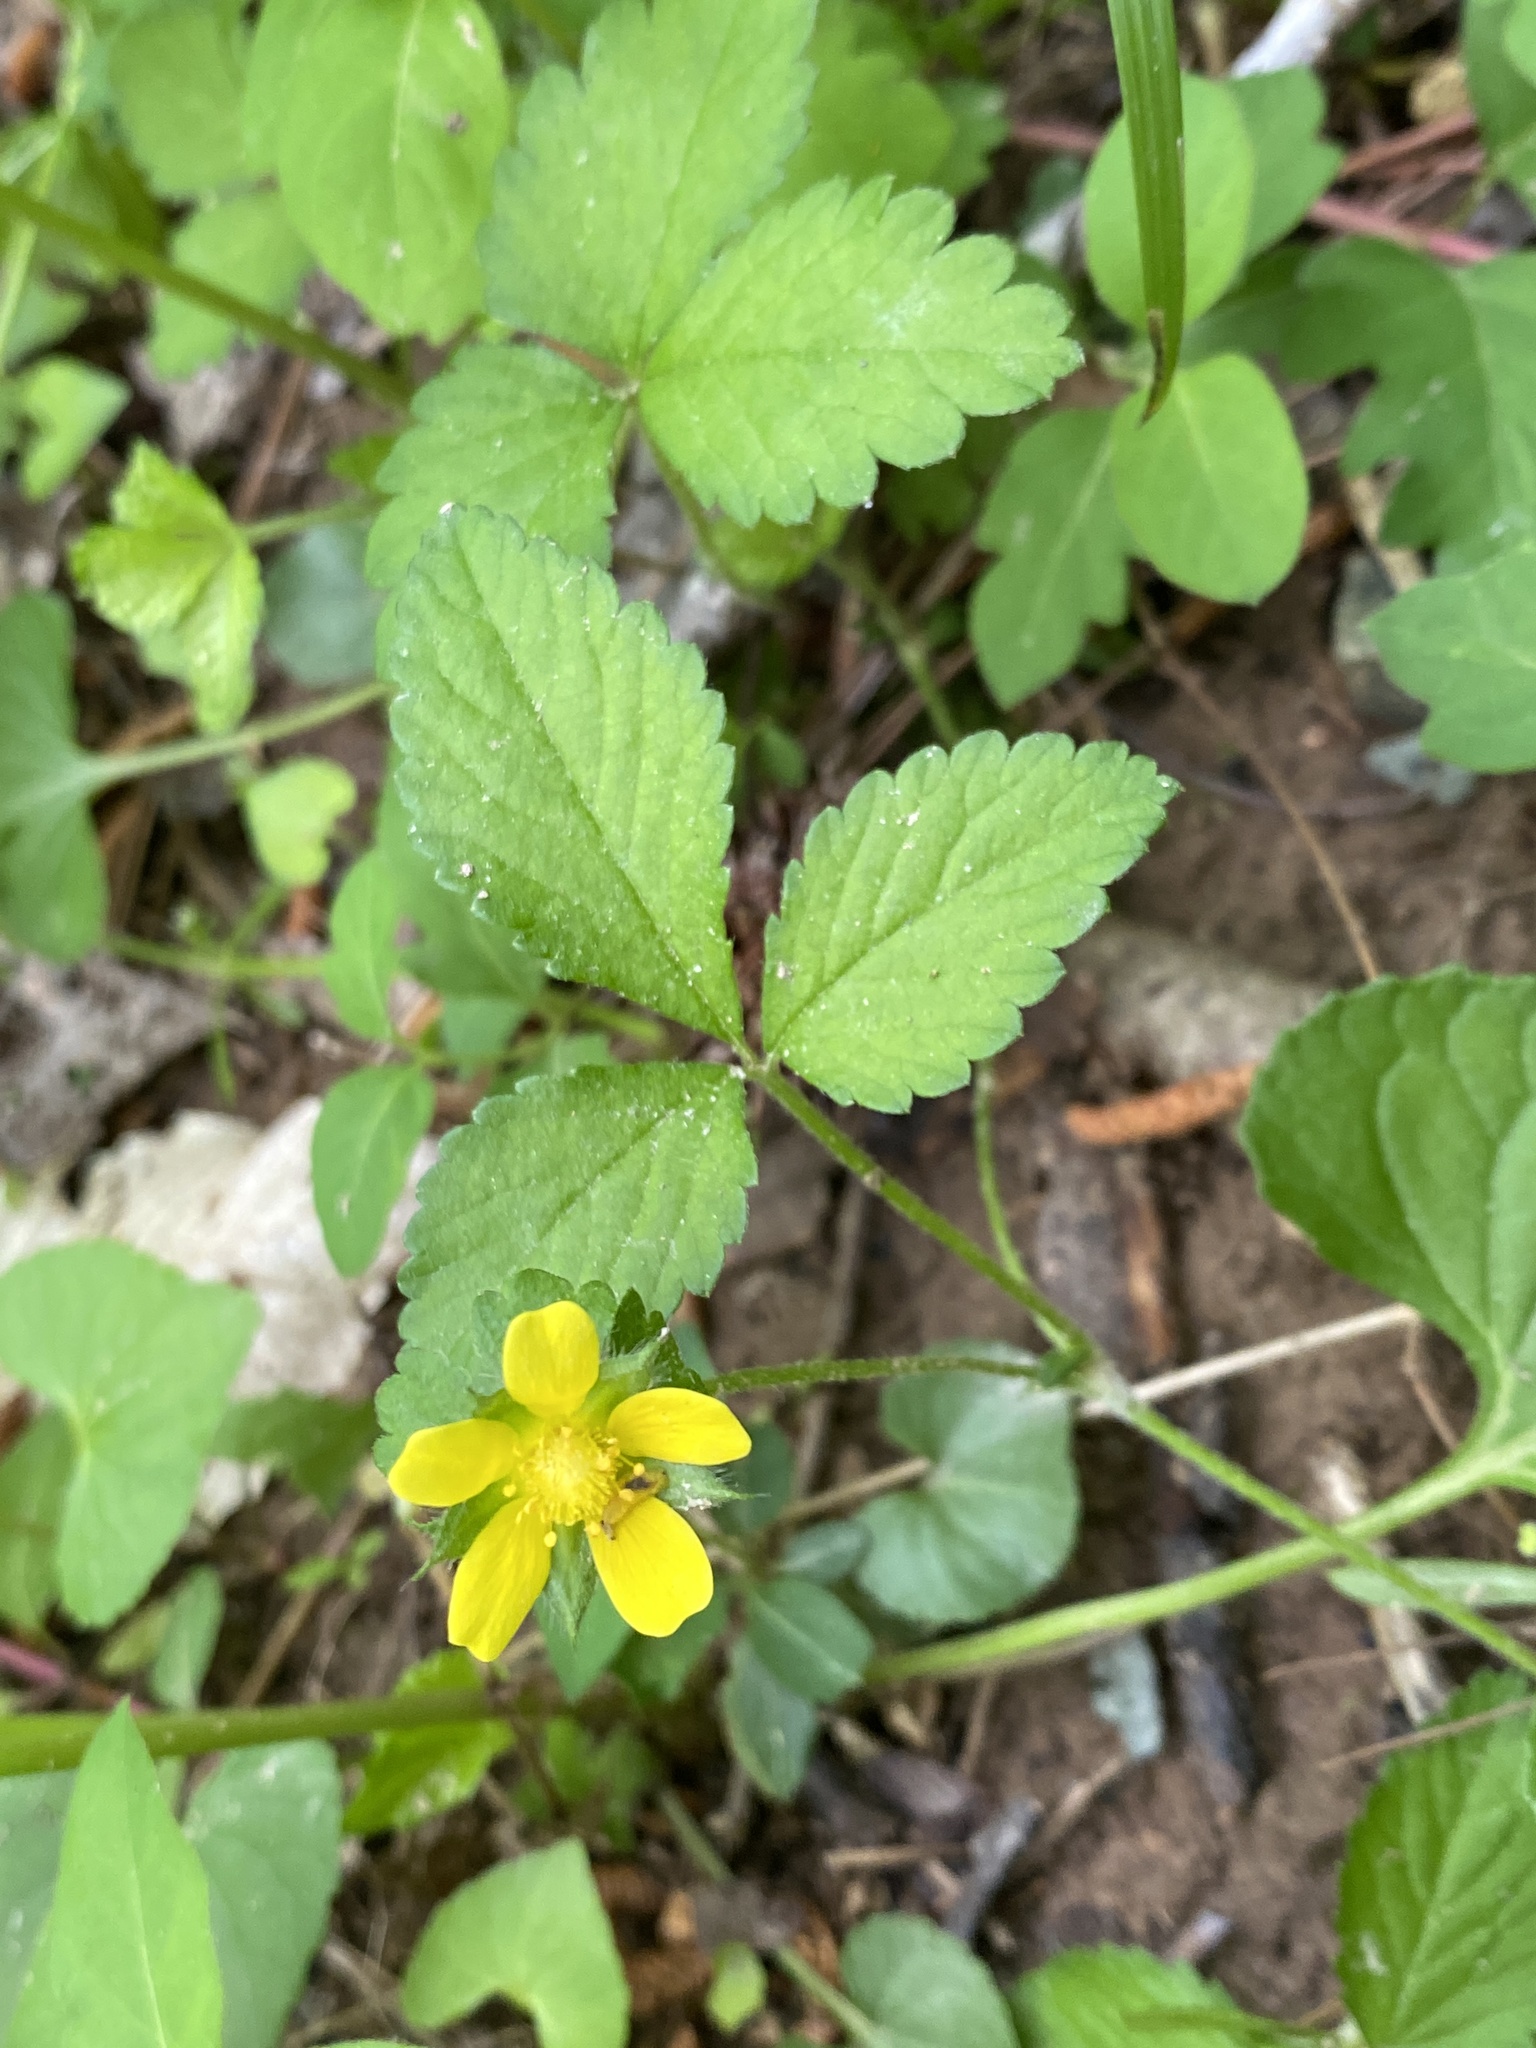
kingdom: Plantae
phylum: Tracheophyta
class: Magnoliopsida
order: Rosales
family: Rosaceae
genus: Potentilla
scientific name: Potentilla indica
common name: Yellow-flowered strawberry
